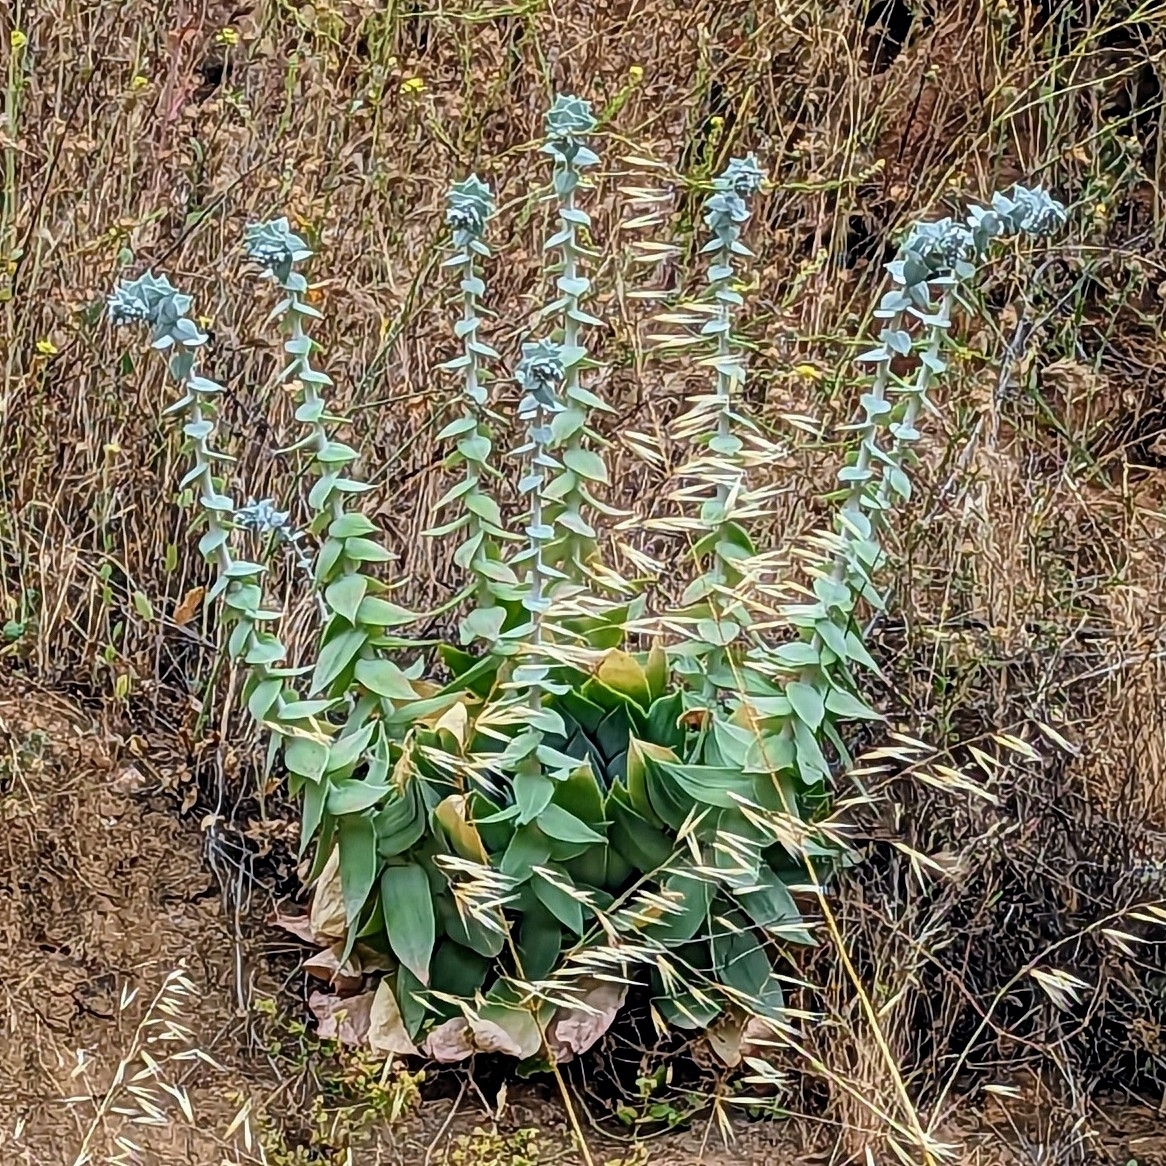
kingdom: Plantae
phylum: Tracheophyta
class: Magnoliopsida
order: Saxifragales
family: Crassulaceae
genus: Dudleya
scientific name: Dudleya pulverulenta
